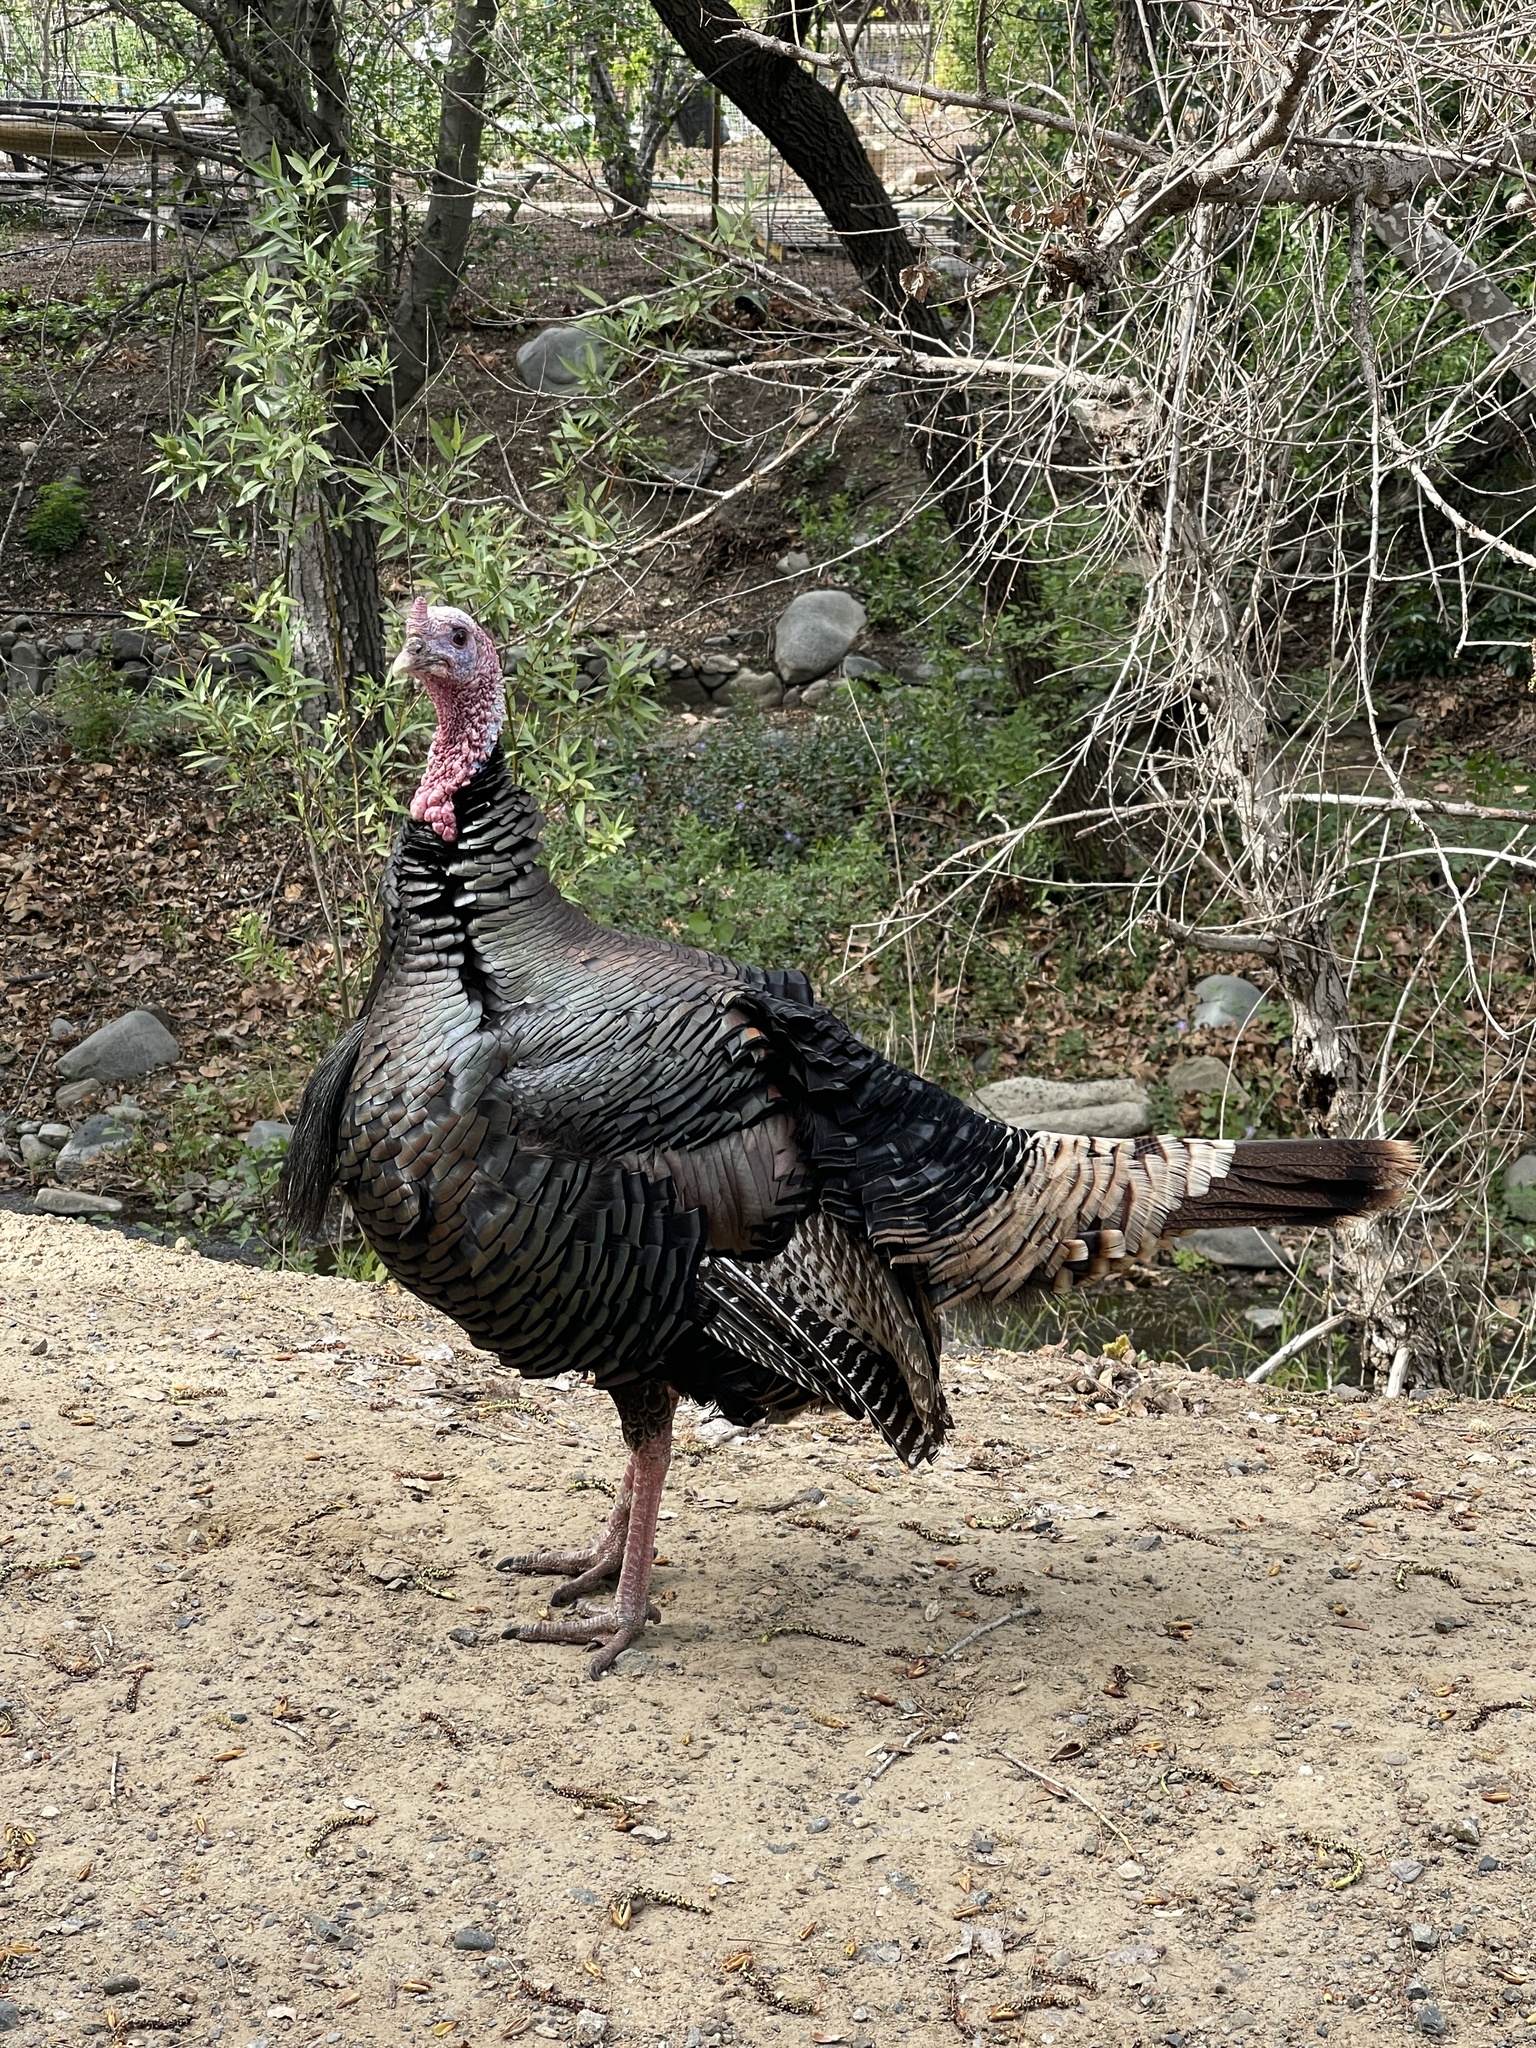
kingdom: Animalia
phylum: Chordata
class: Aves
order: Galliformes
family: Phasianidae
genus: Meleagris
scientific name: Meleagris gallopavo
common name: Wild turkey
